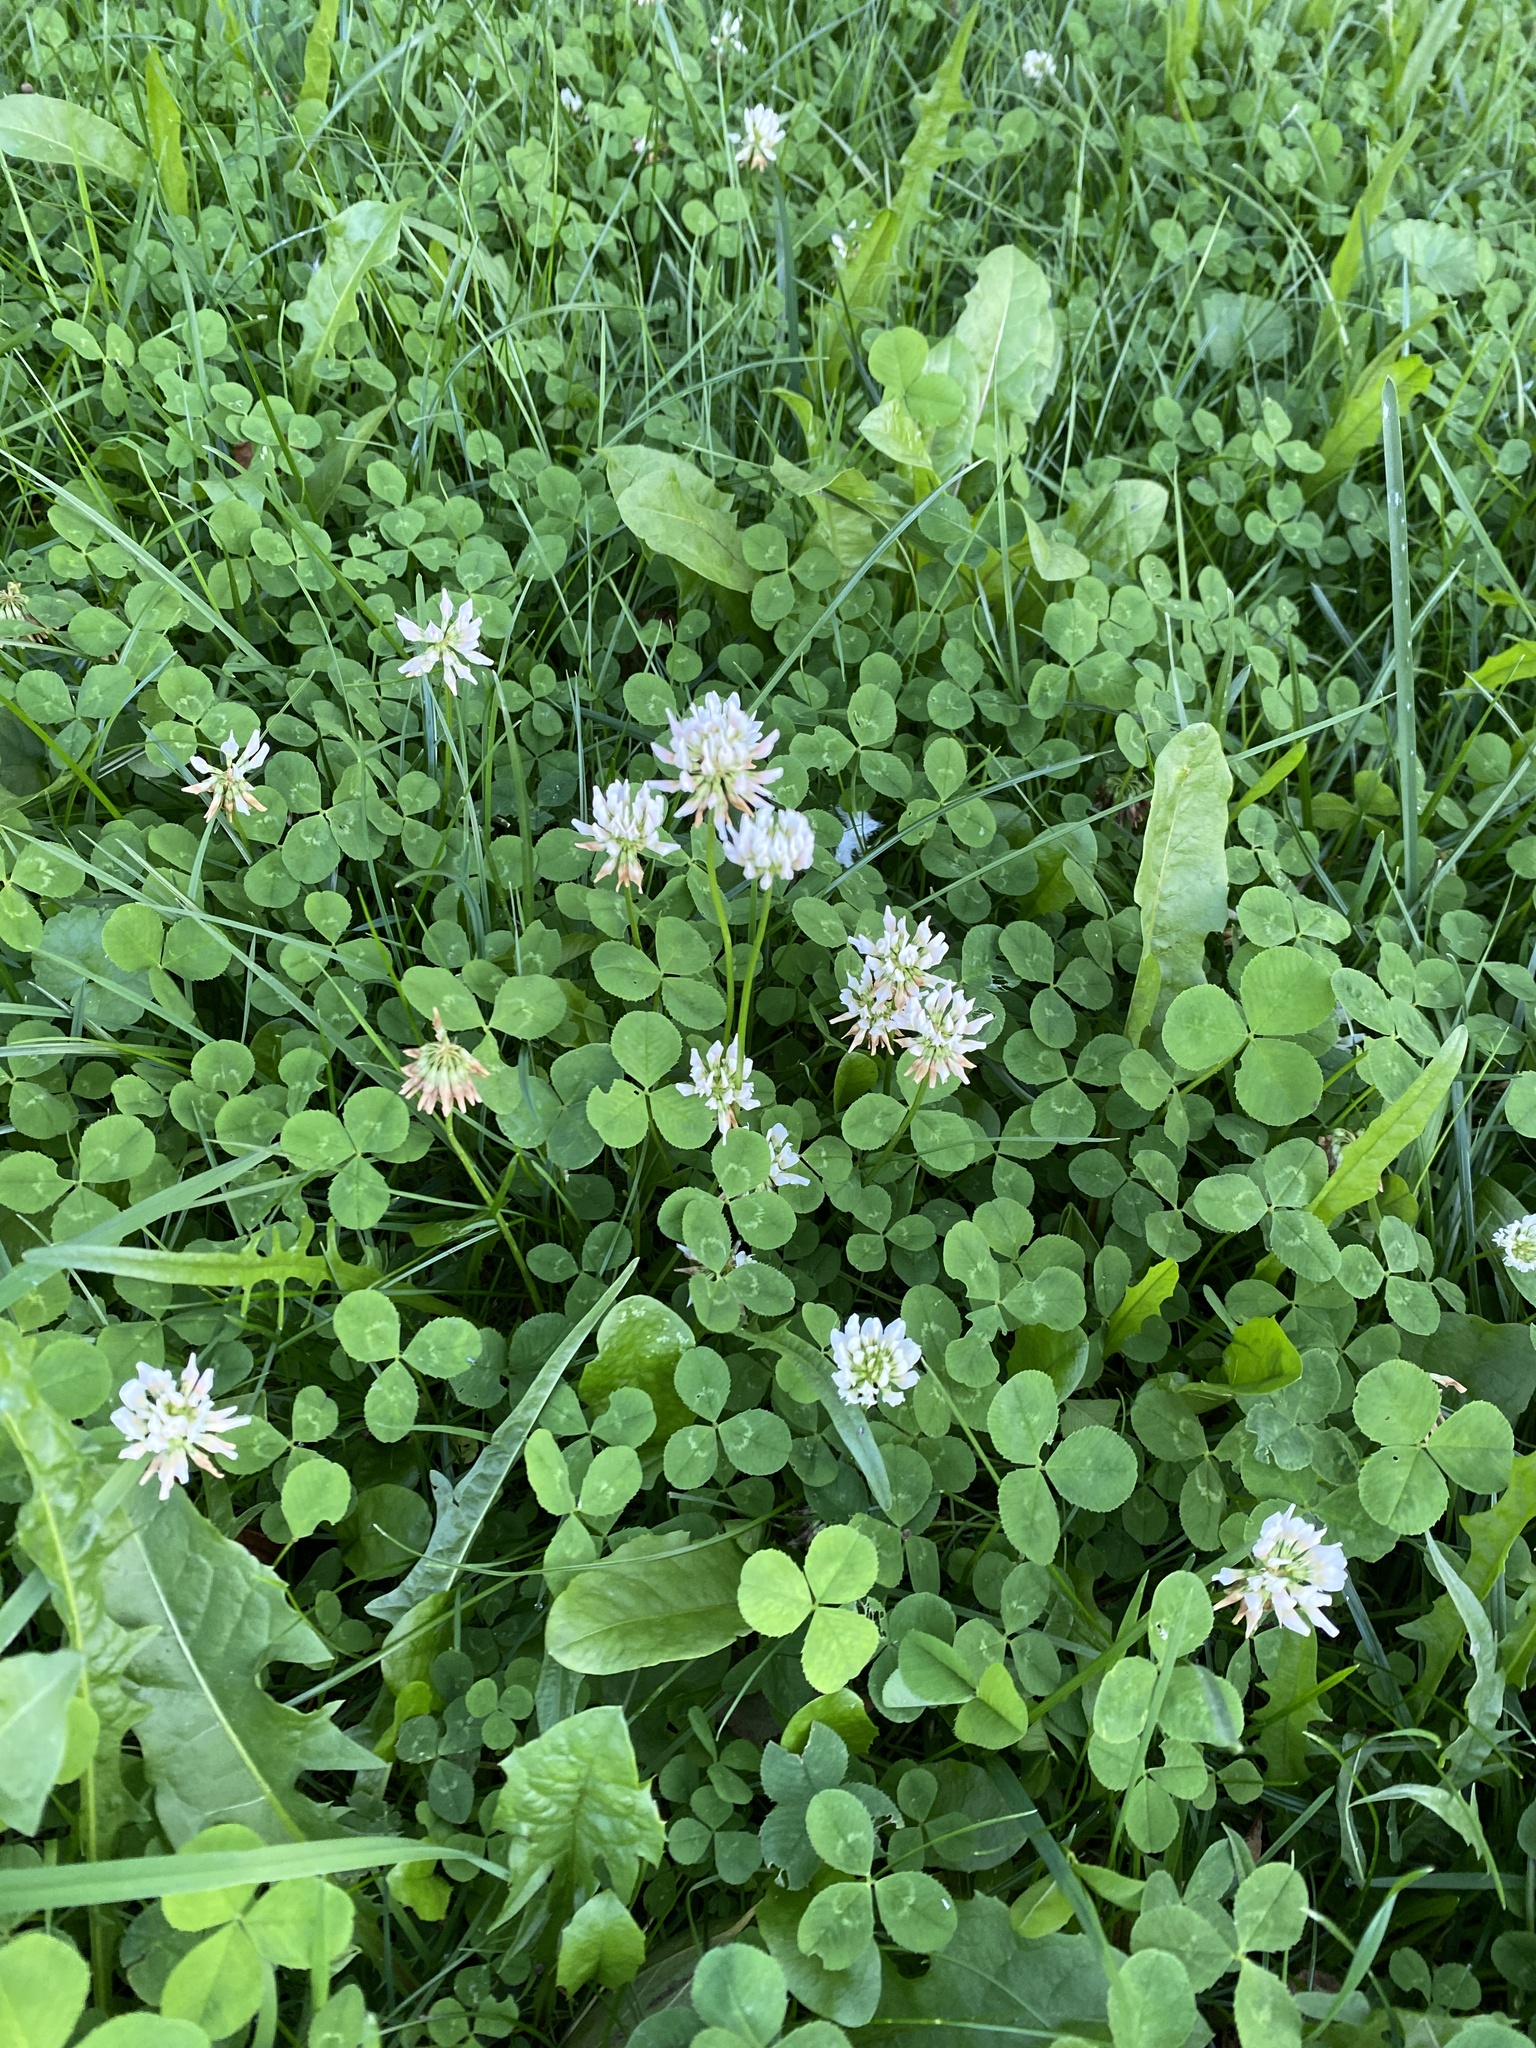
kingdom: Plantae
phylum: Tracheophyta
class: Magnoliopsida
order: Fabales
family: Fabaceae
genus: Trifolium
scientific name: Trifolium repens
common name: White clover
